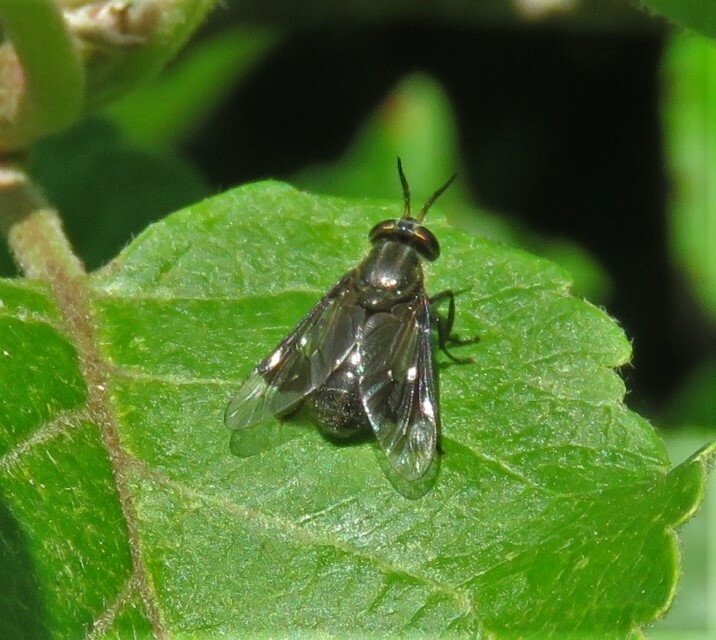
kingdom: Animalia
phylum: Arthropoda
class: Insecta
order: Diptera
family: Tabanidae
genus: Chrysops
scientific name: Chrysops niger
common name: Black deer fly
